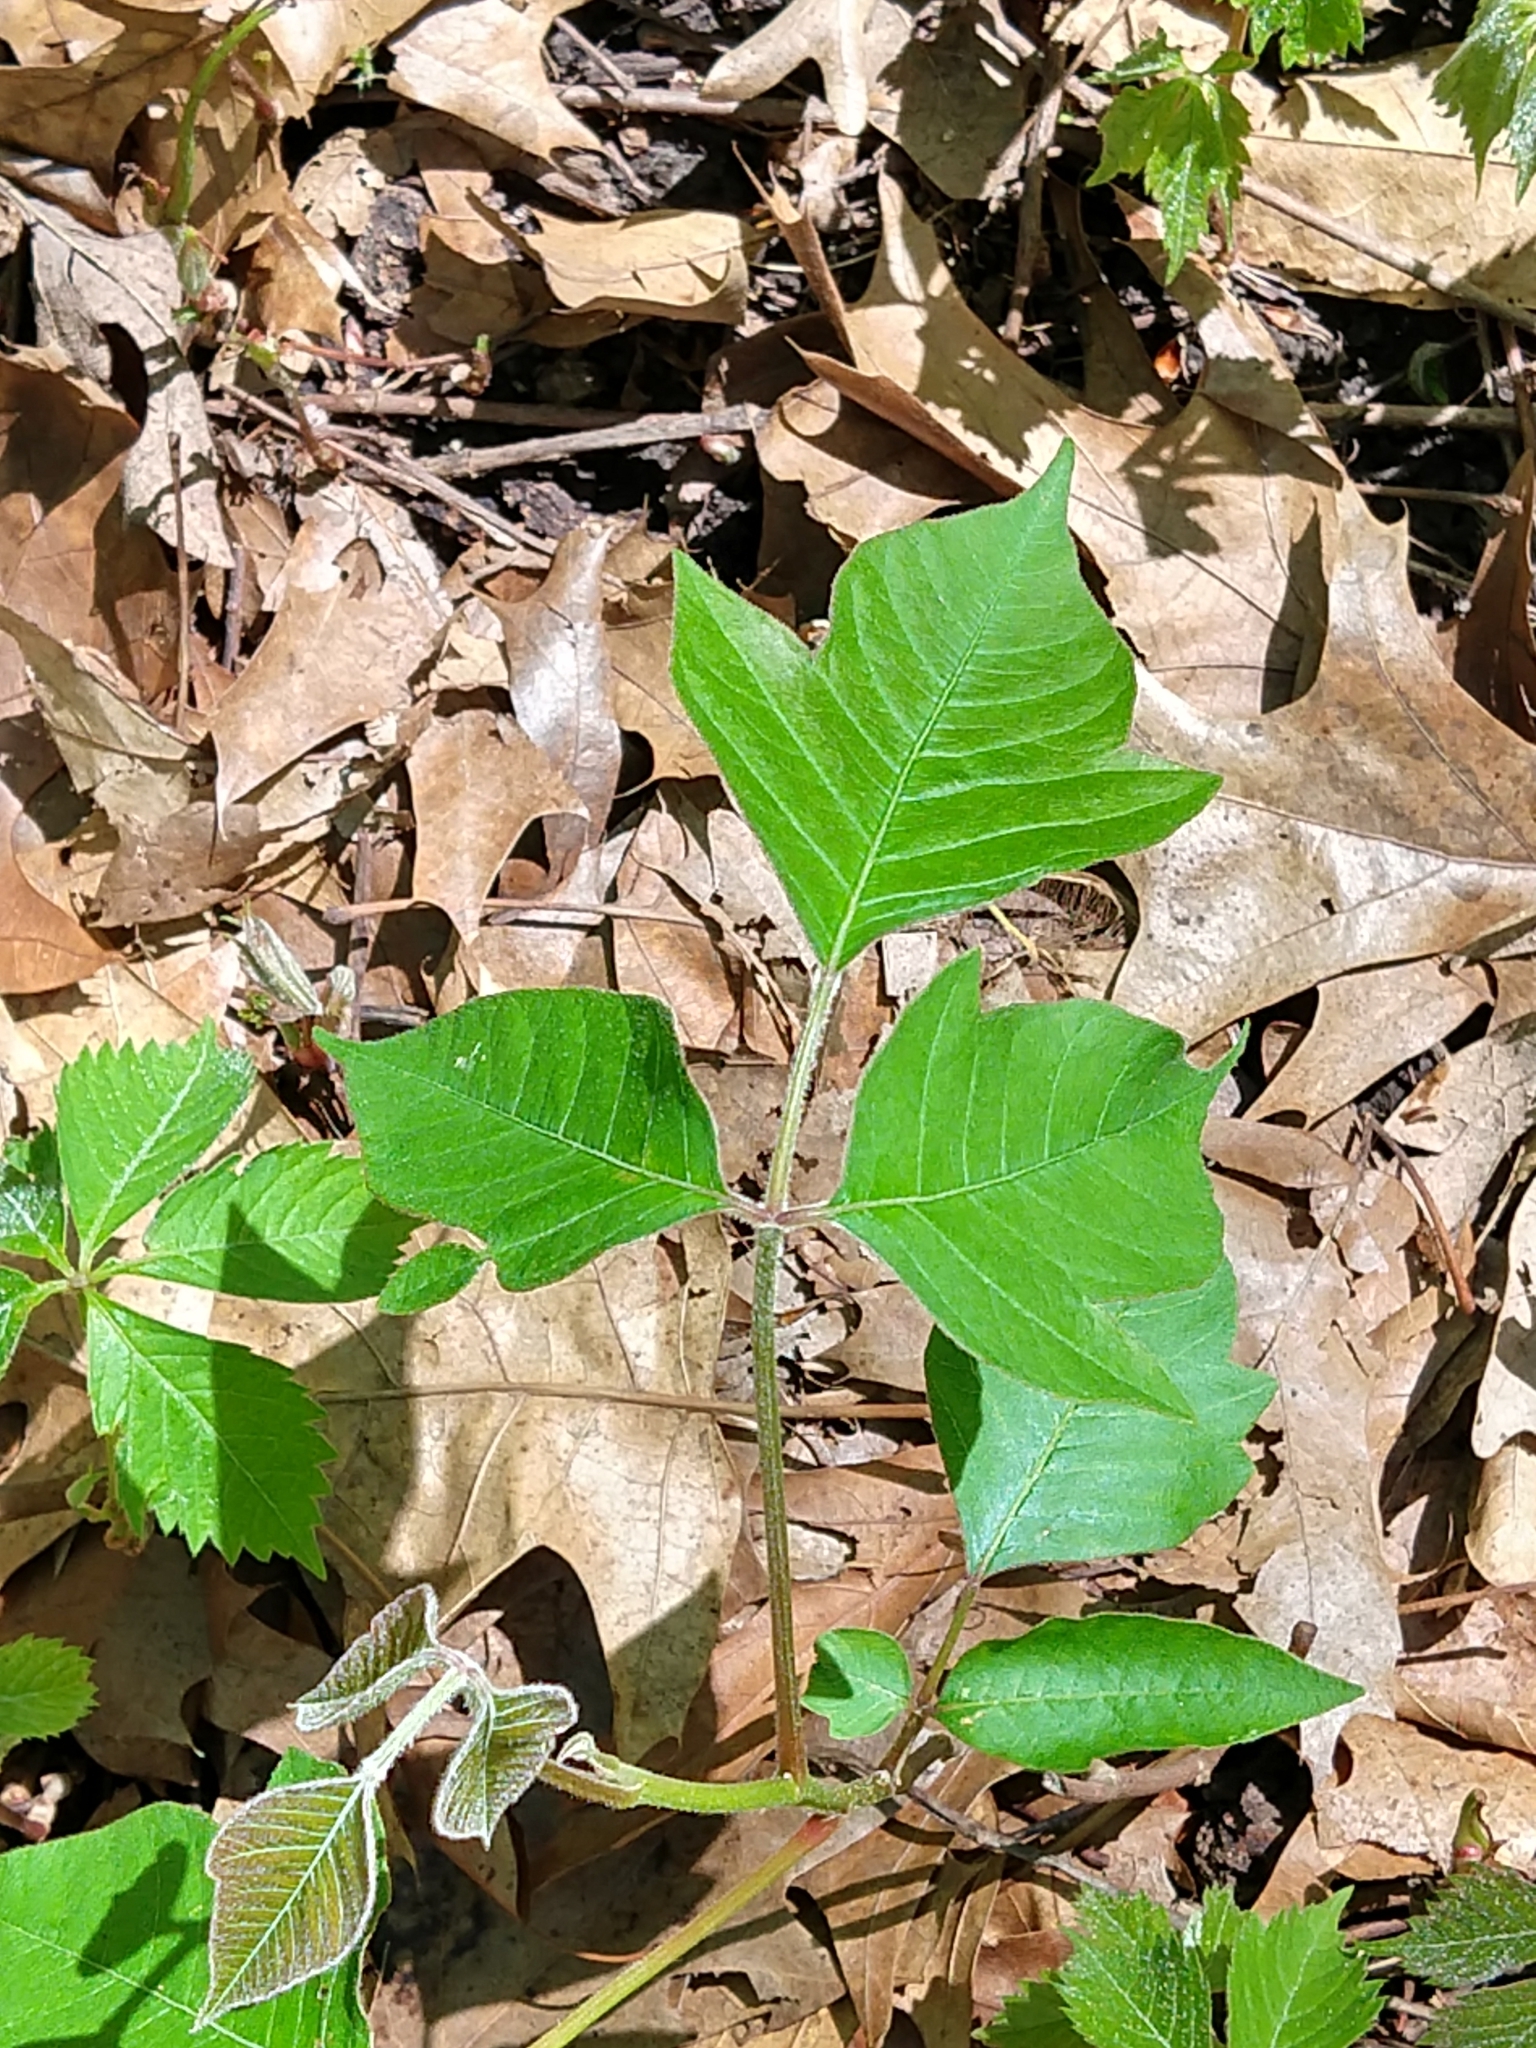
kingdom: Plantae
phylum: Tracheophyta
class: Magnoliopsida
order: Sapindales
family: Anacardiaceae
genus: Toxicodendron
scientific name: Toxicodendron radicans
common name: Poison ivy
